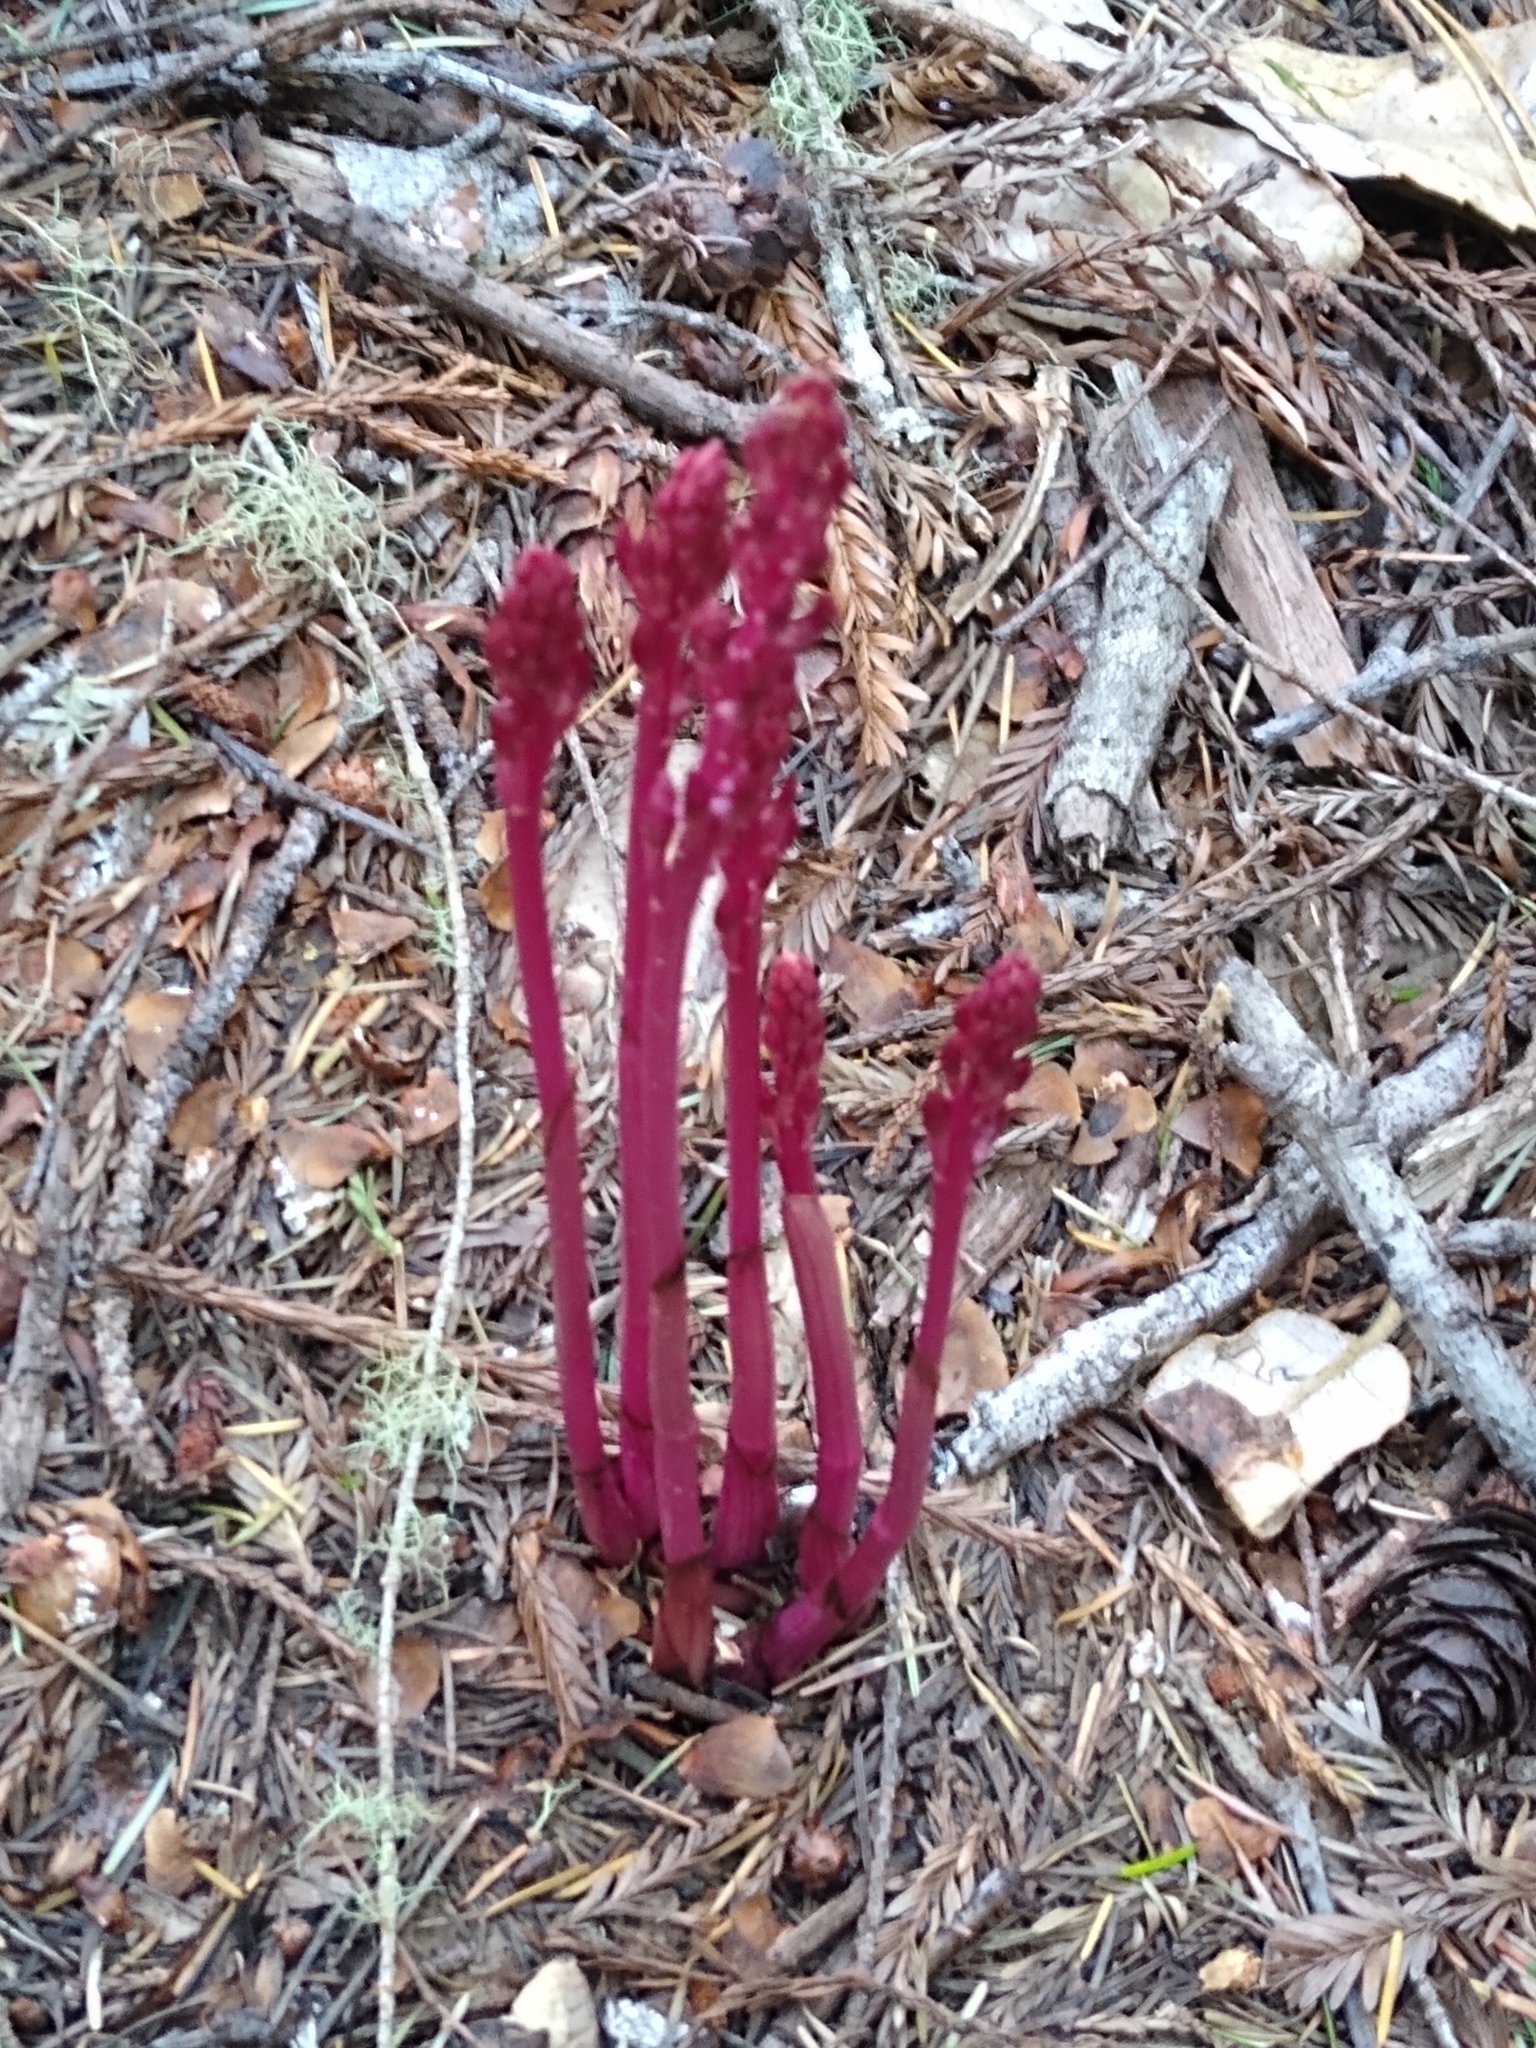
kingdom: Plantae
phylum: Tracheophyta
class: Liliopsida
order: Asparagales
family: Orchidaceae
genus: Corallorhiza
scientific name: Corallorhiza mertensiana
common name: Pacific coralroot
